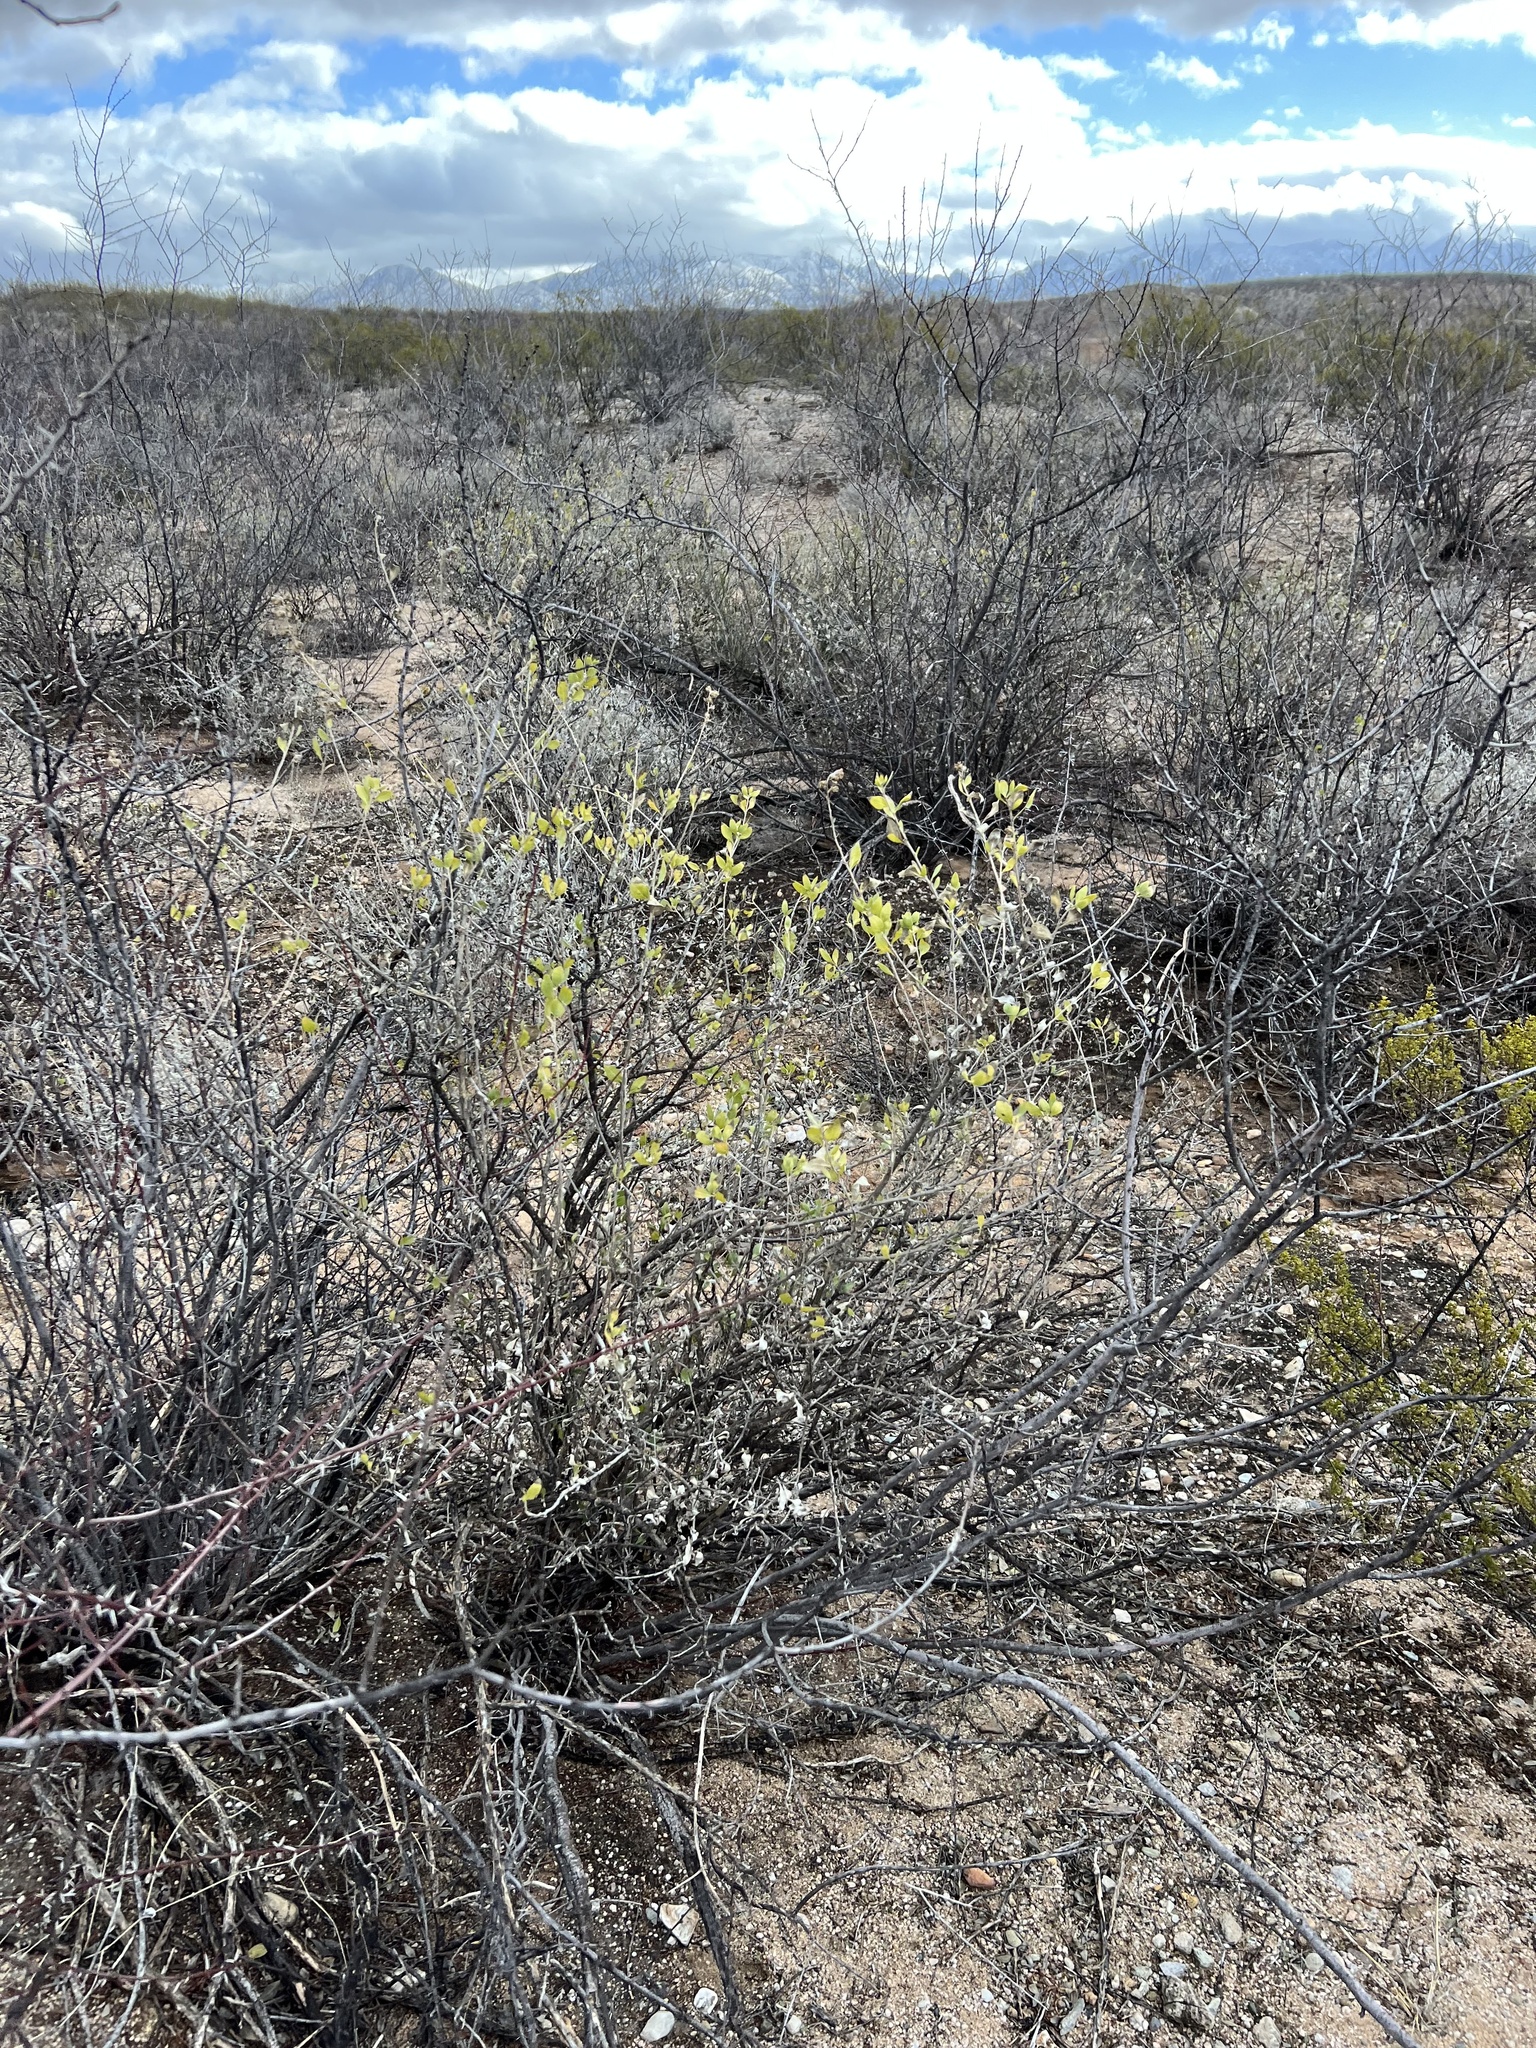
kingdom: Plantae
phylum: Tracheophyta
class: Magnoliopsida
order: Asterales
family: Asteraceae
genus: Flourensia
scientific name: Flourensia cernua
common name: Varnishbush
